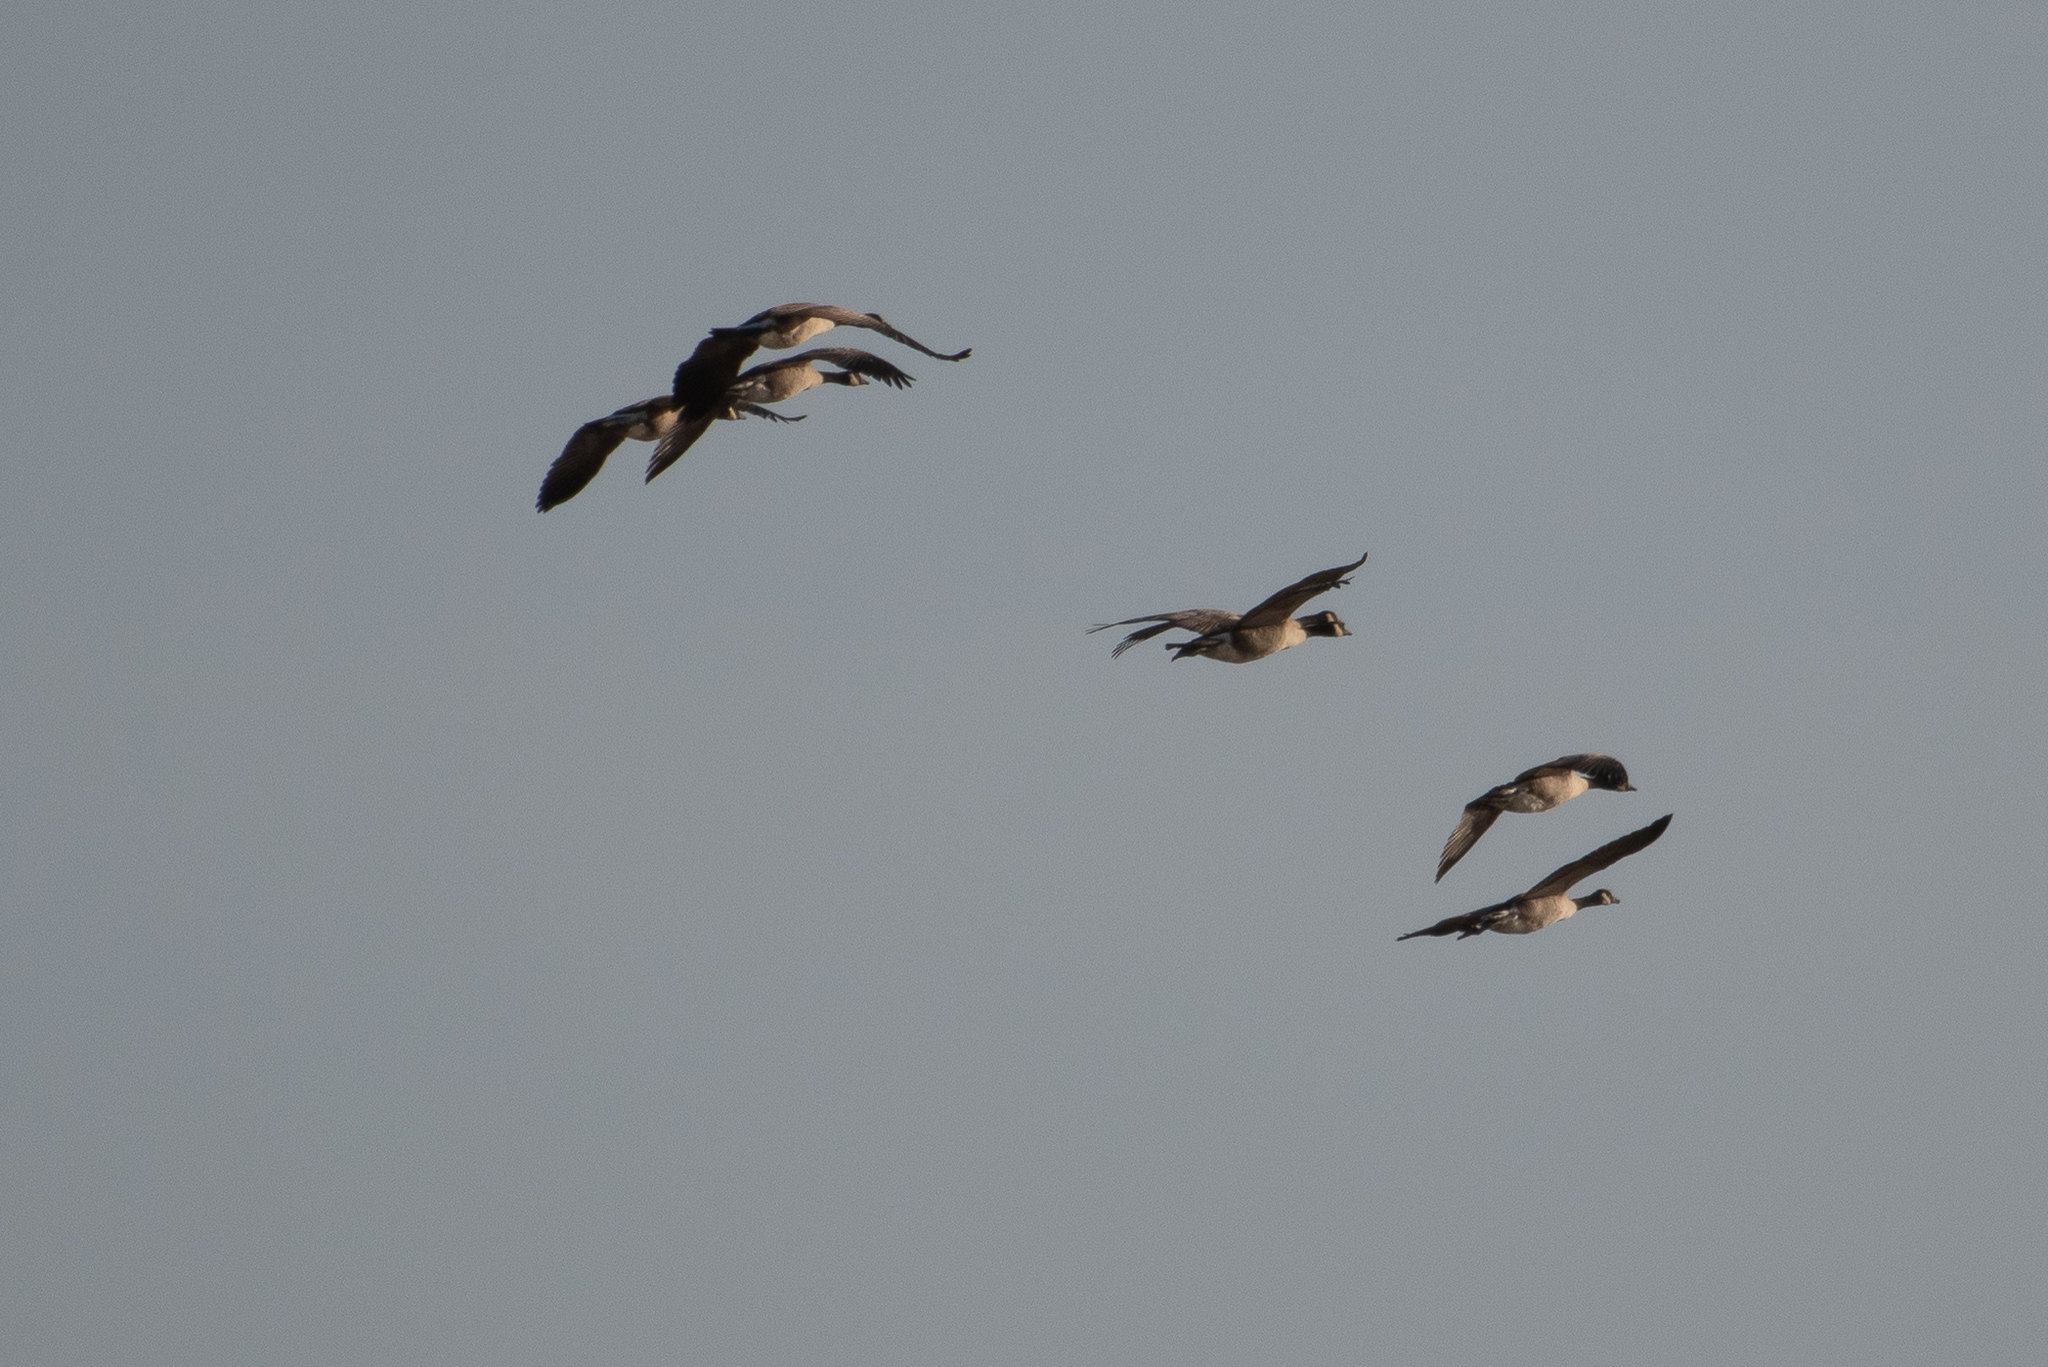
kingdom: Animalia
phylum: Chordata
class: Aves
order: Anseriformes
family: Anatidae
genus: Branta
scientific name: Branta canadensis
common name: Canada goose
